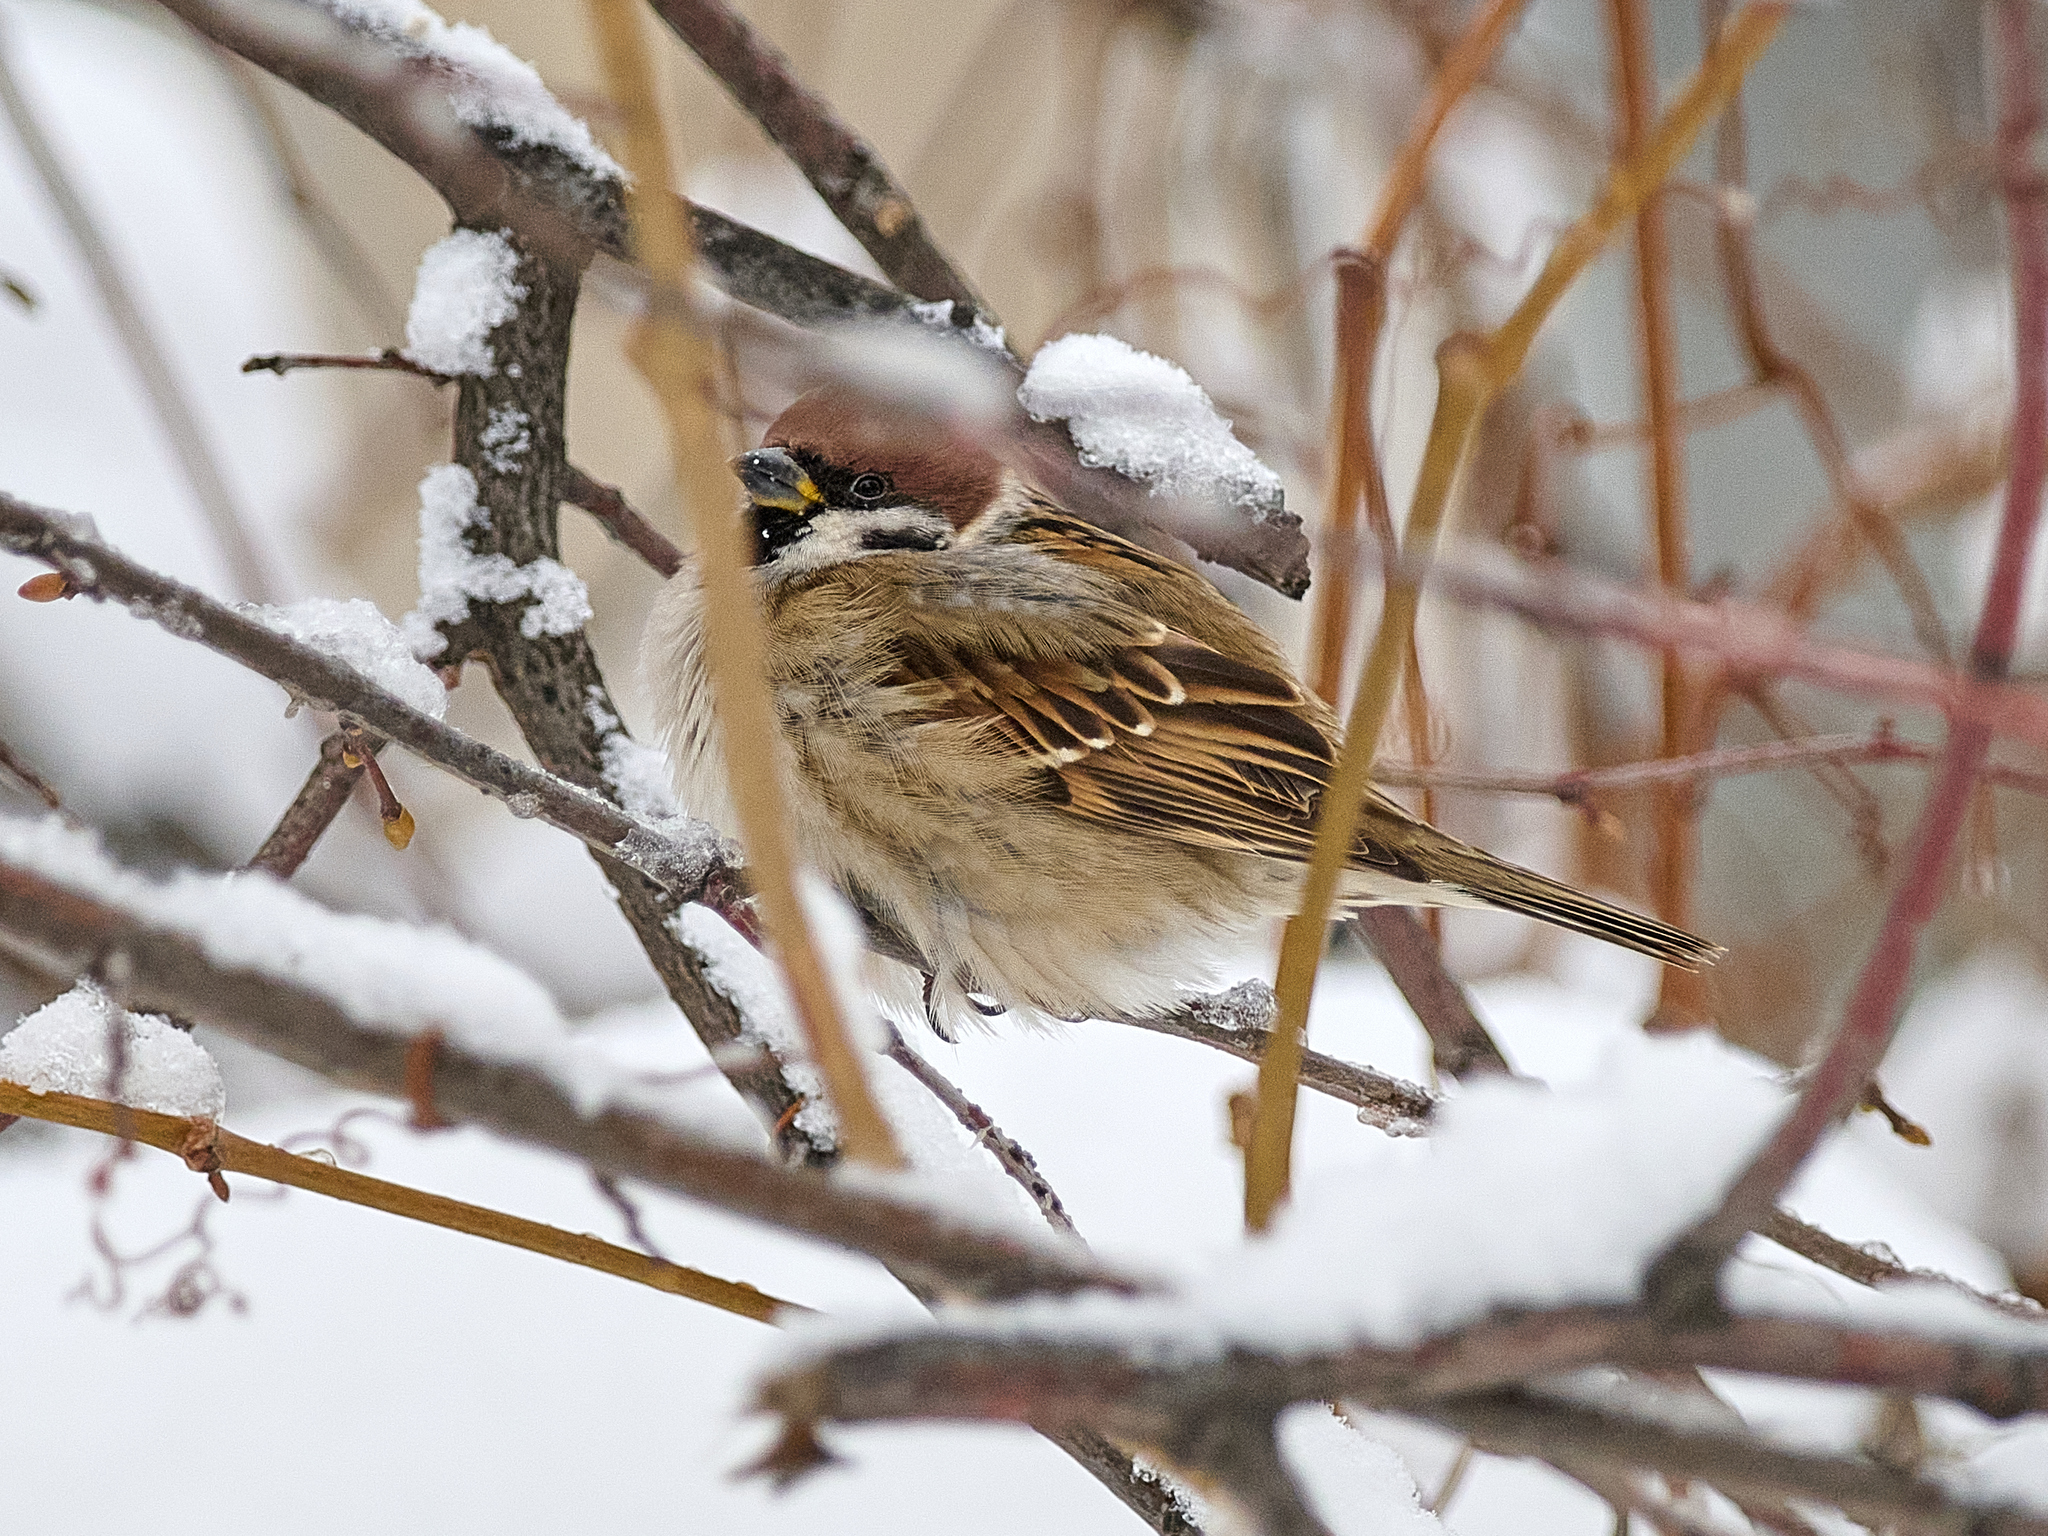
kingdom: Animalia
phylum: Chordata
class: Aves
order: Passeriformes
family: Passeridae
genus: Passer
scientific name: Passer montanus
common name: Eurasian tree sparrow
